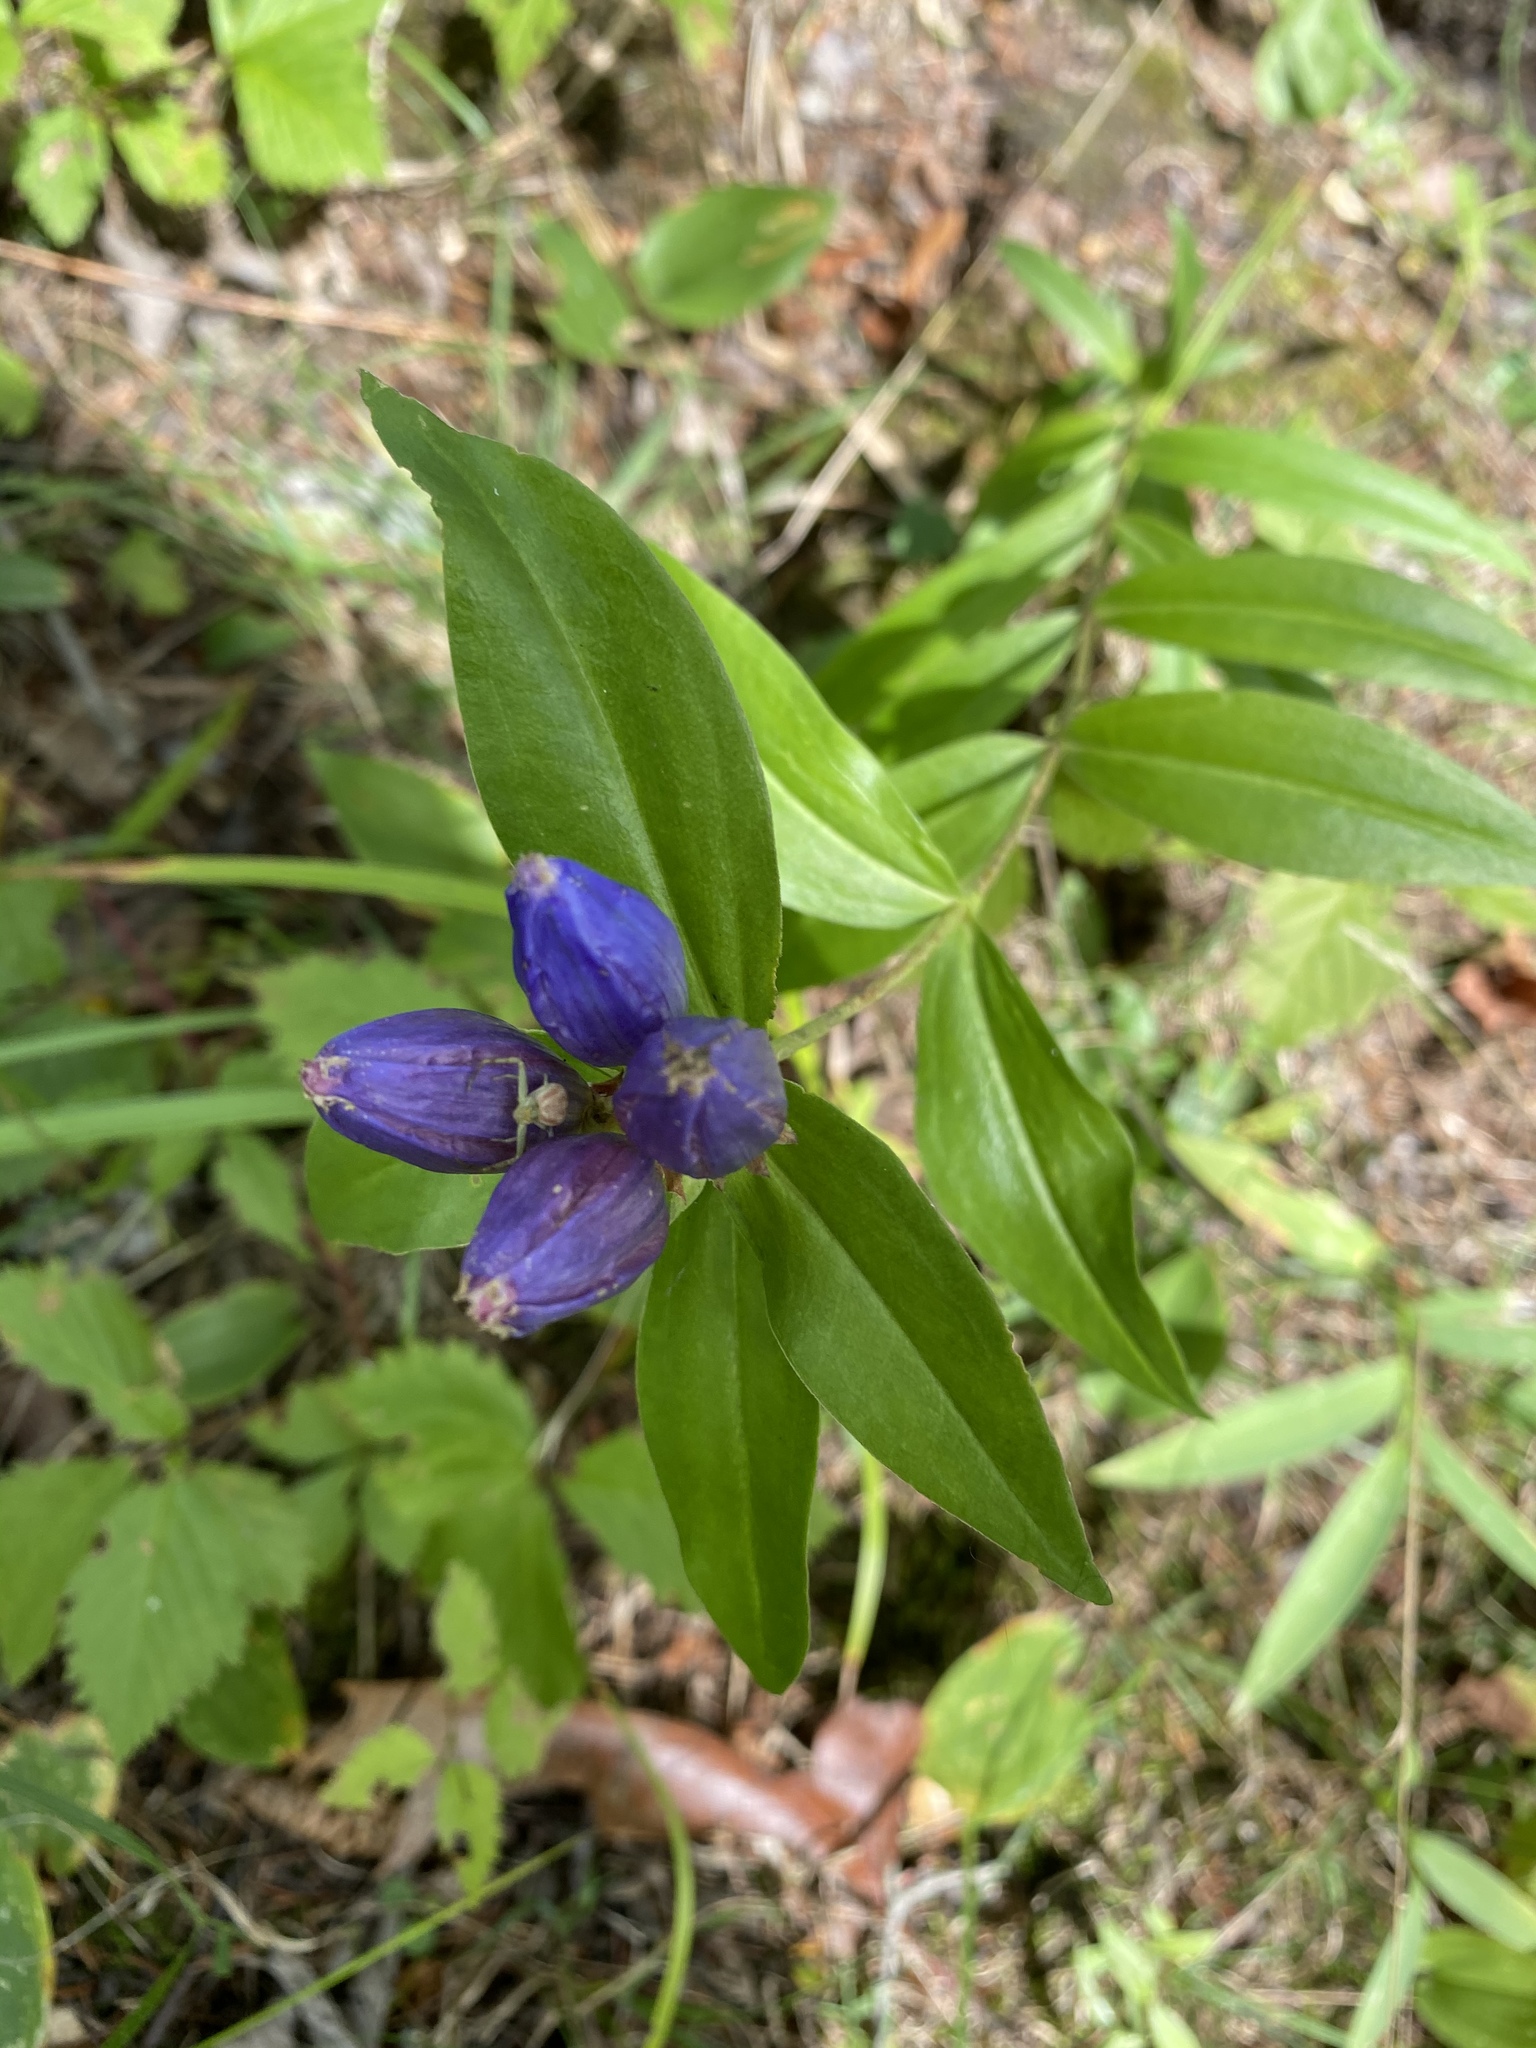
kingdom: Plantae
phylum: Tracheophyta
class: Magnoliopsida
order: Gentianales
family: Gentianaceae
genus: Gentiana
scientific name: Gentiana andrewsii
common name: Bottle gentian
